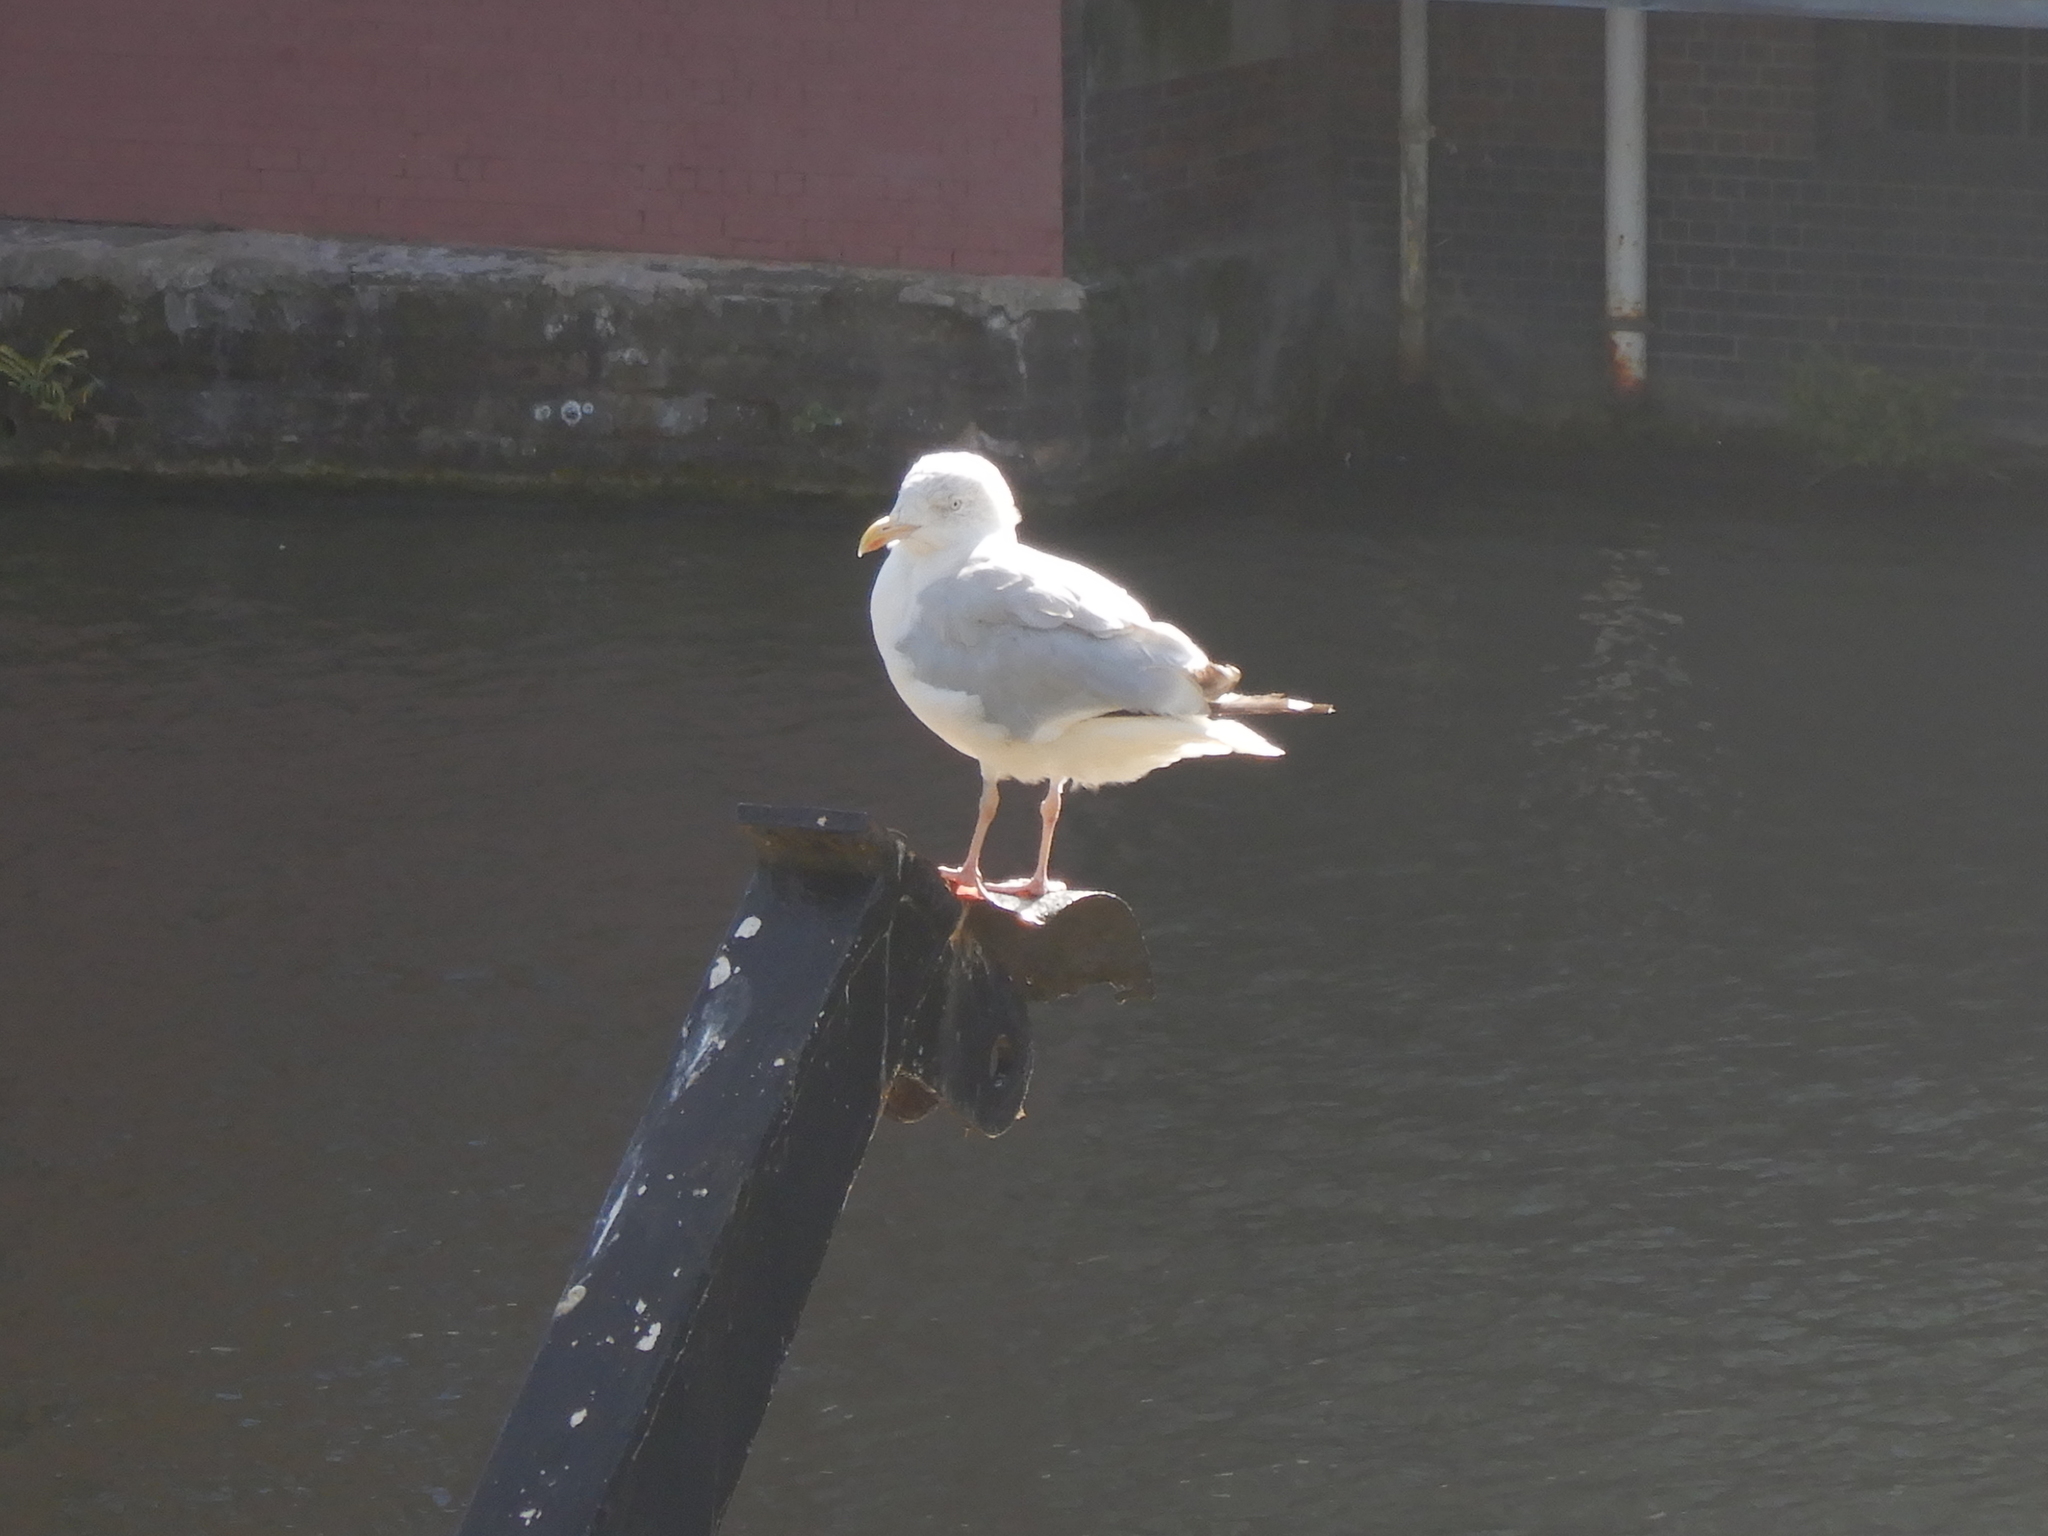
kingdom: Animalia
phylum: Chordata
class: Aves
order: Charadriiformes
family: Laridae
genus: Larus
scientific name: Larus argentatus
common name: Herring gull
